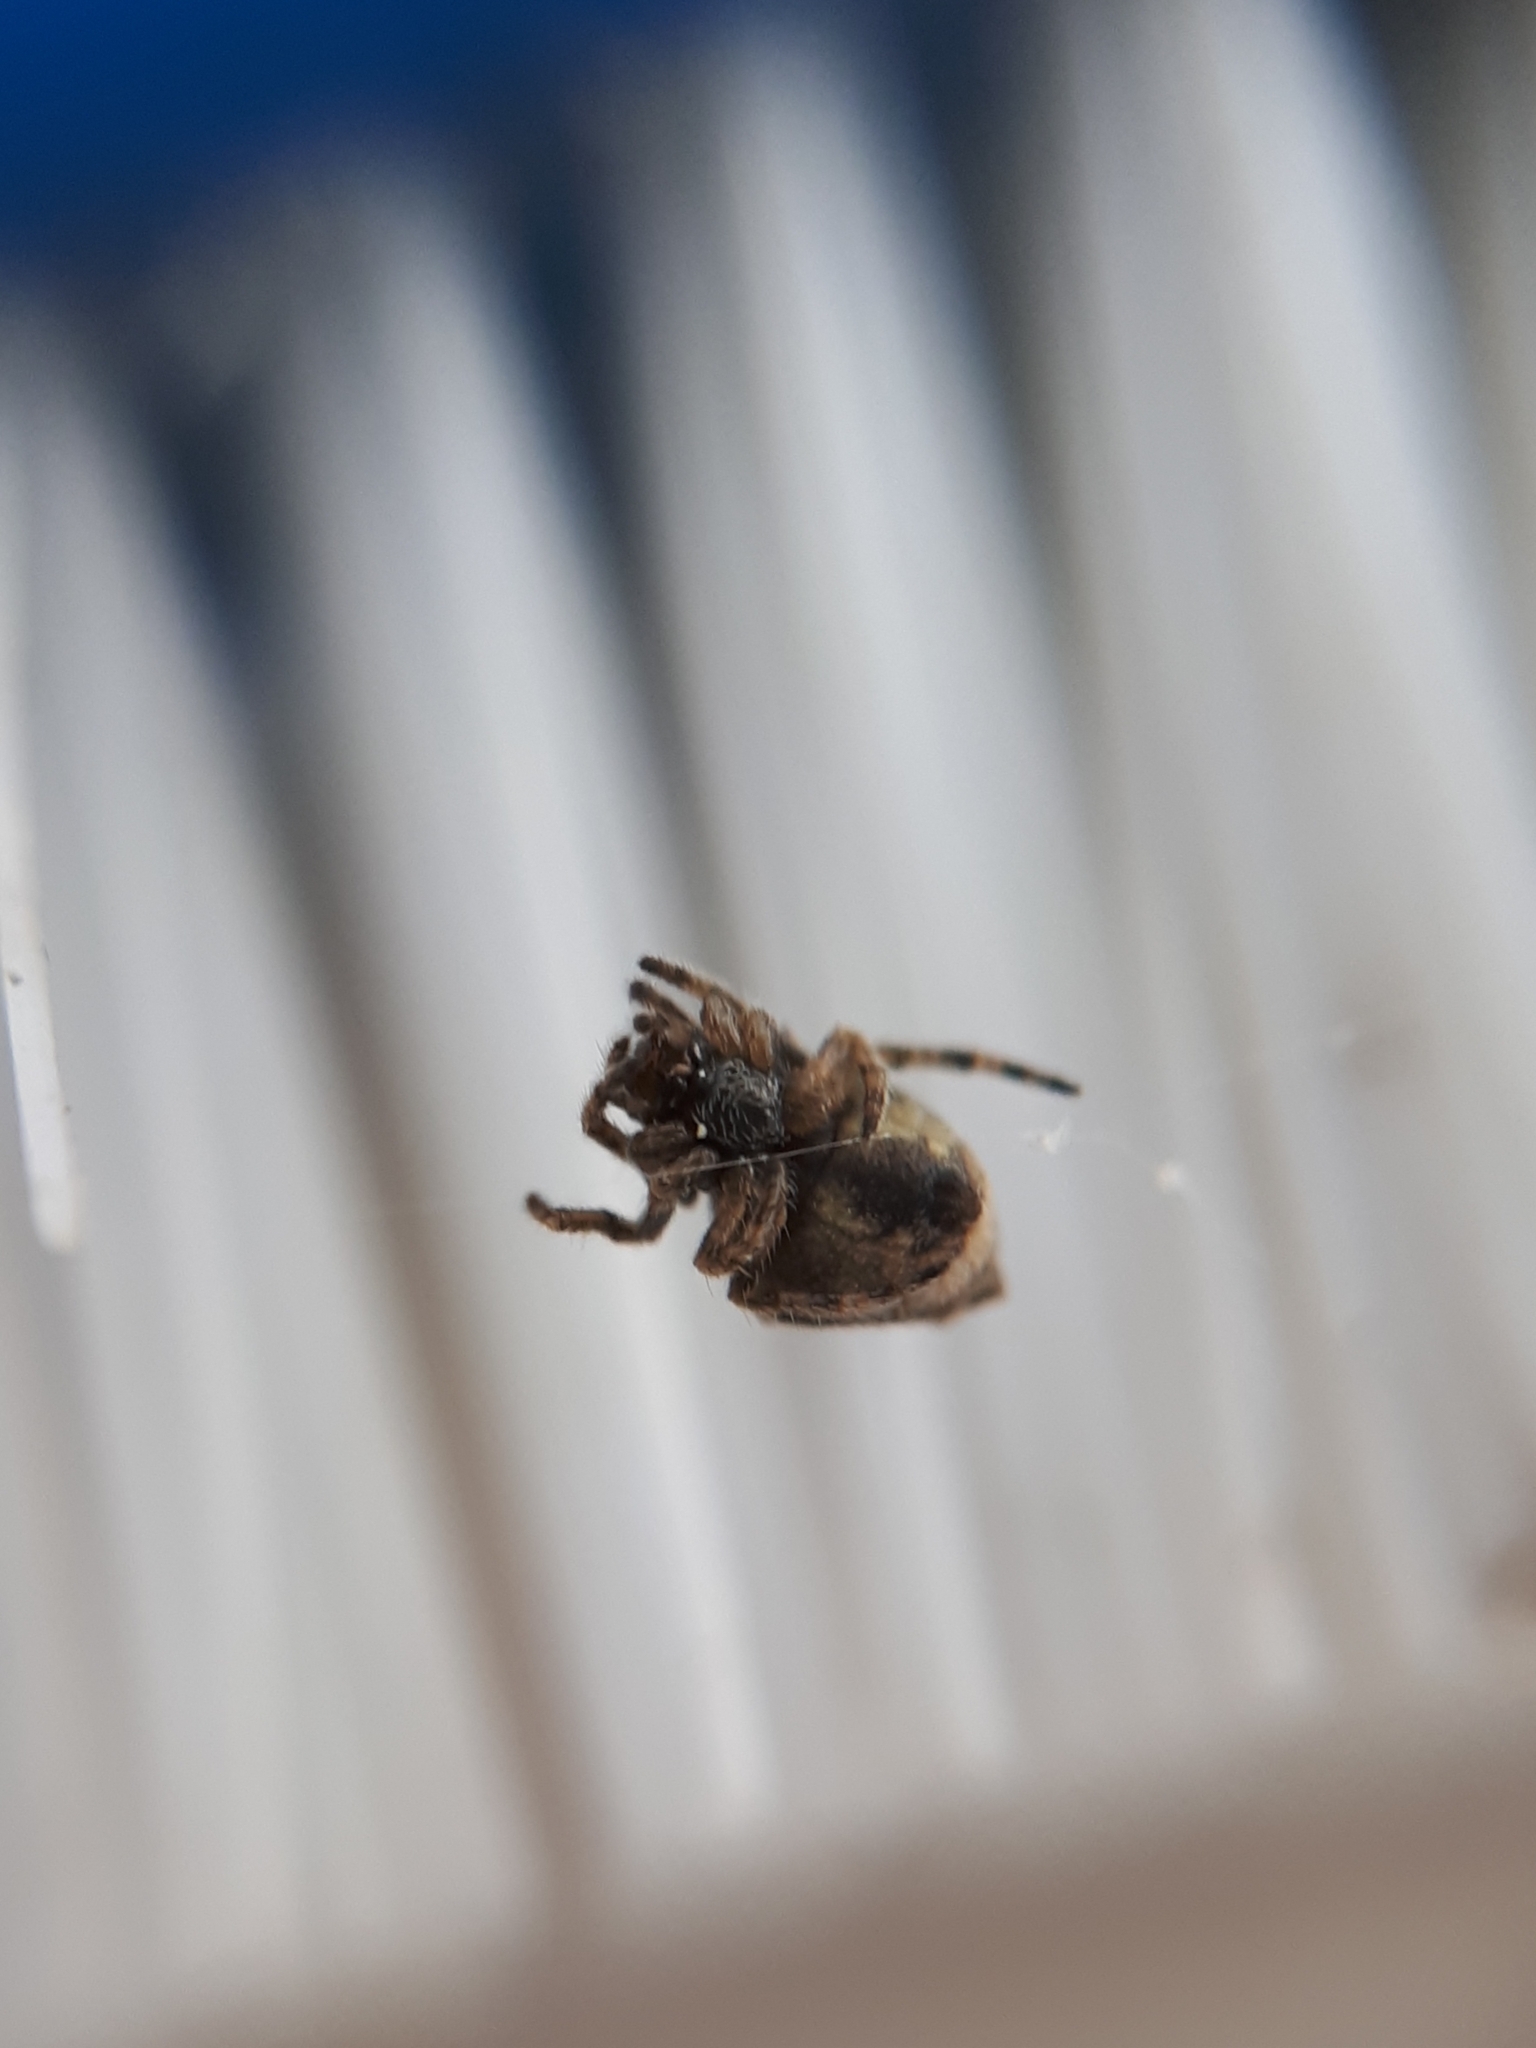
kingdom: Animalia
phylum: Arthropoda
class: Arachnida
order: Araneae
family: Araneidae
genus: Eriophora
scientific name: Eriophora pustulosa
